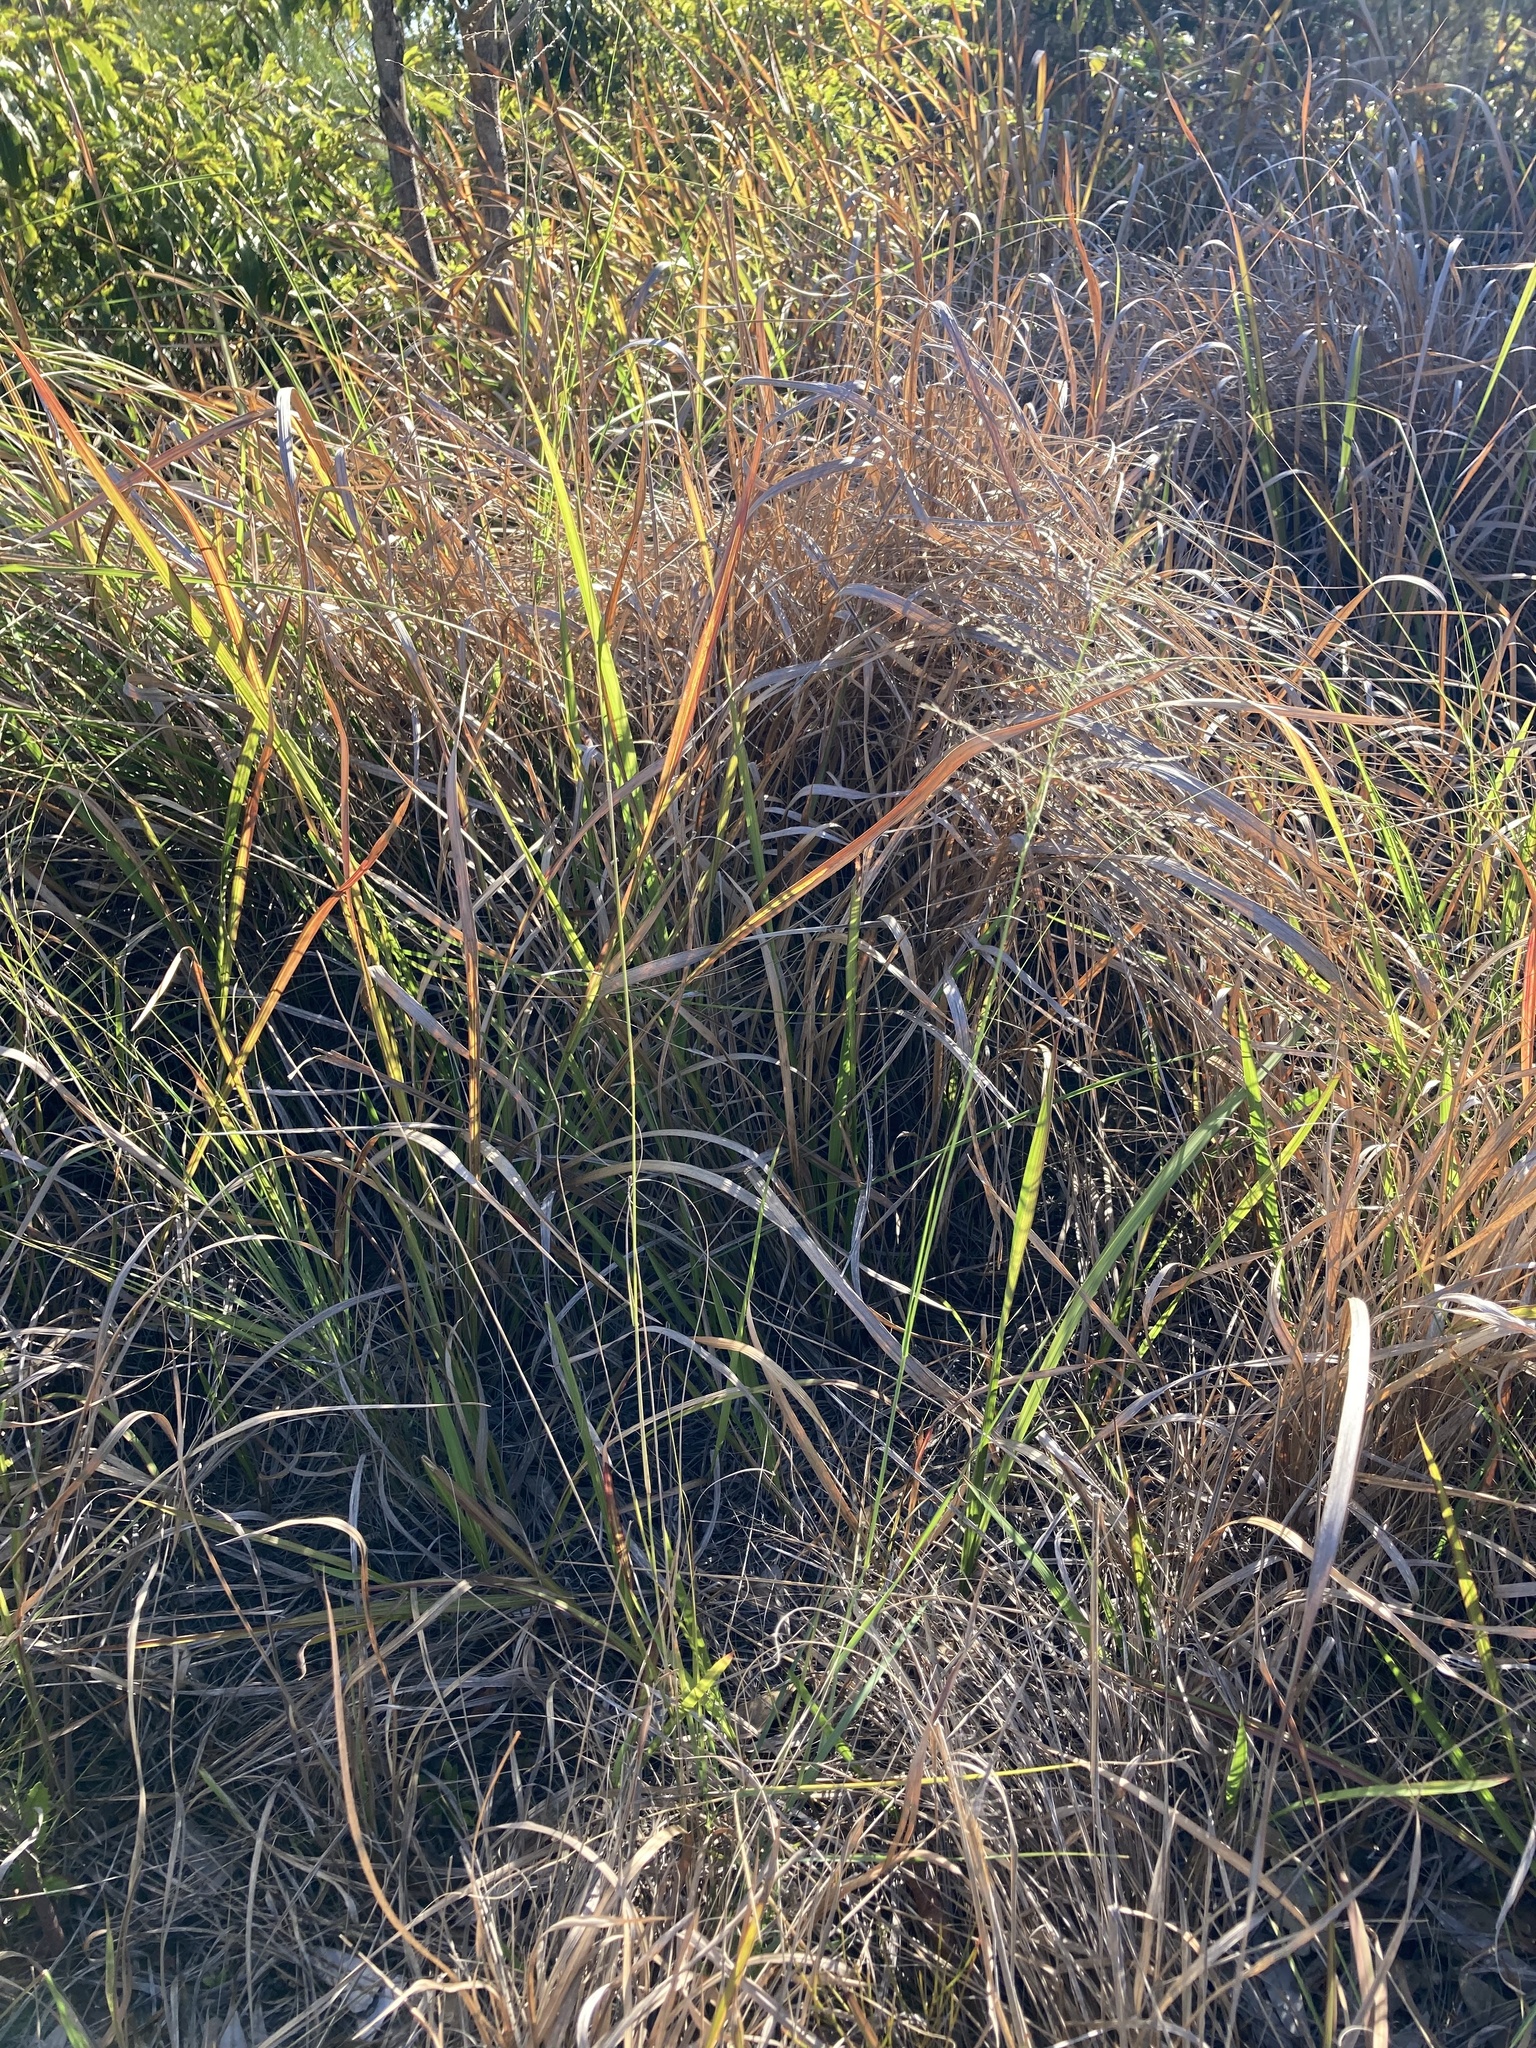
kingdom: Plantae
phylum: Tracheophyta
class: Liliopsida
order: Poales
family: Poaceae
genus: Eragrostis
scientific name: Eragrostis curvula
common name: African love-grass
